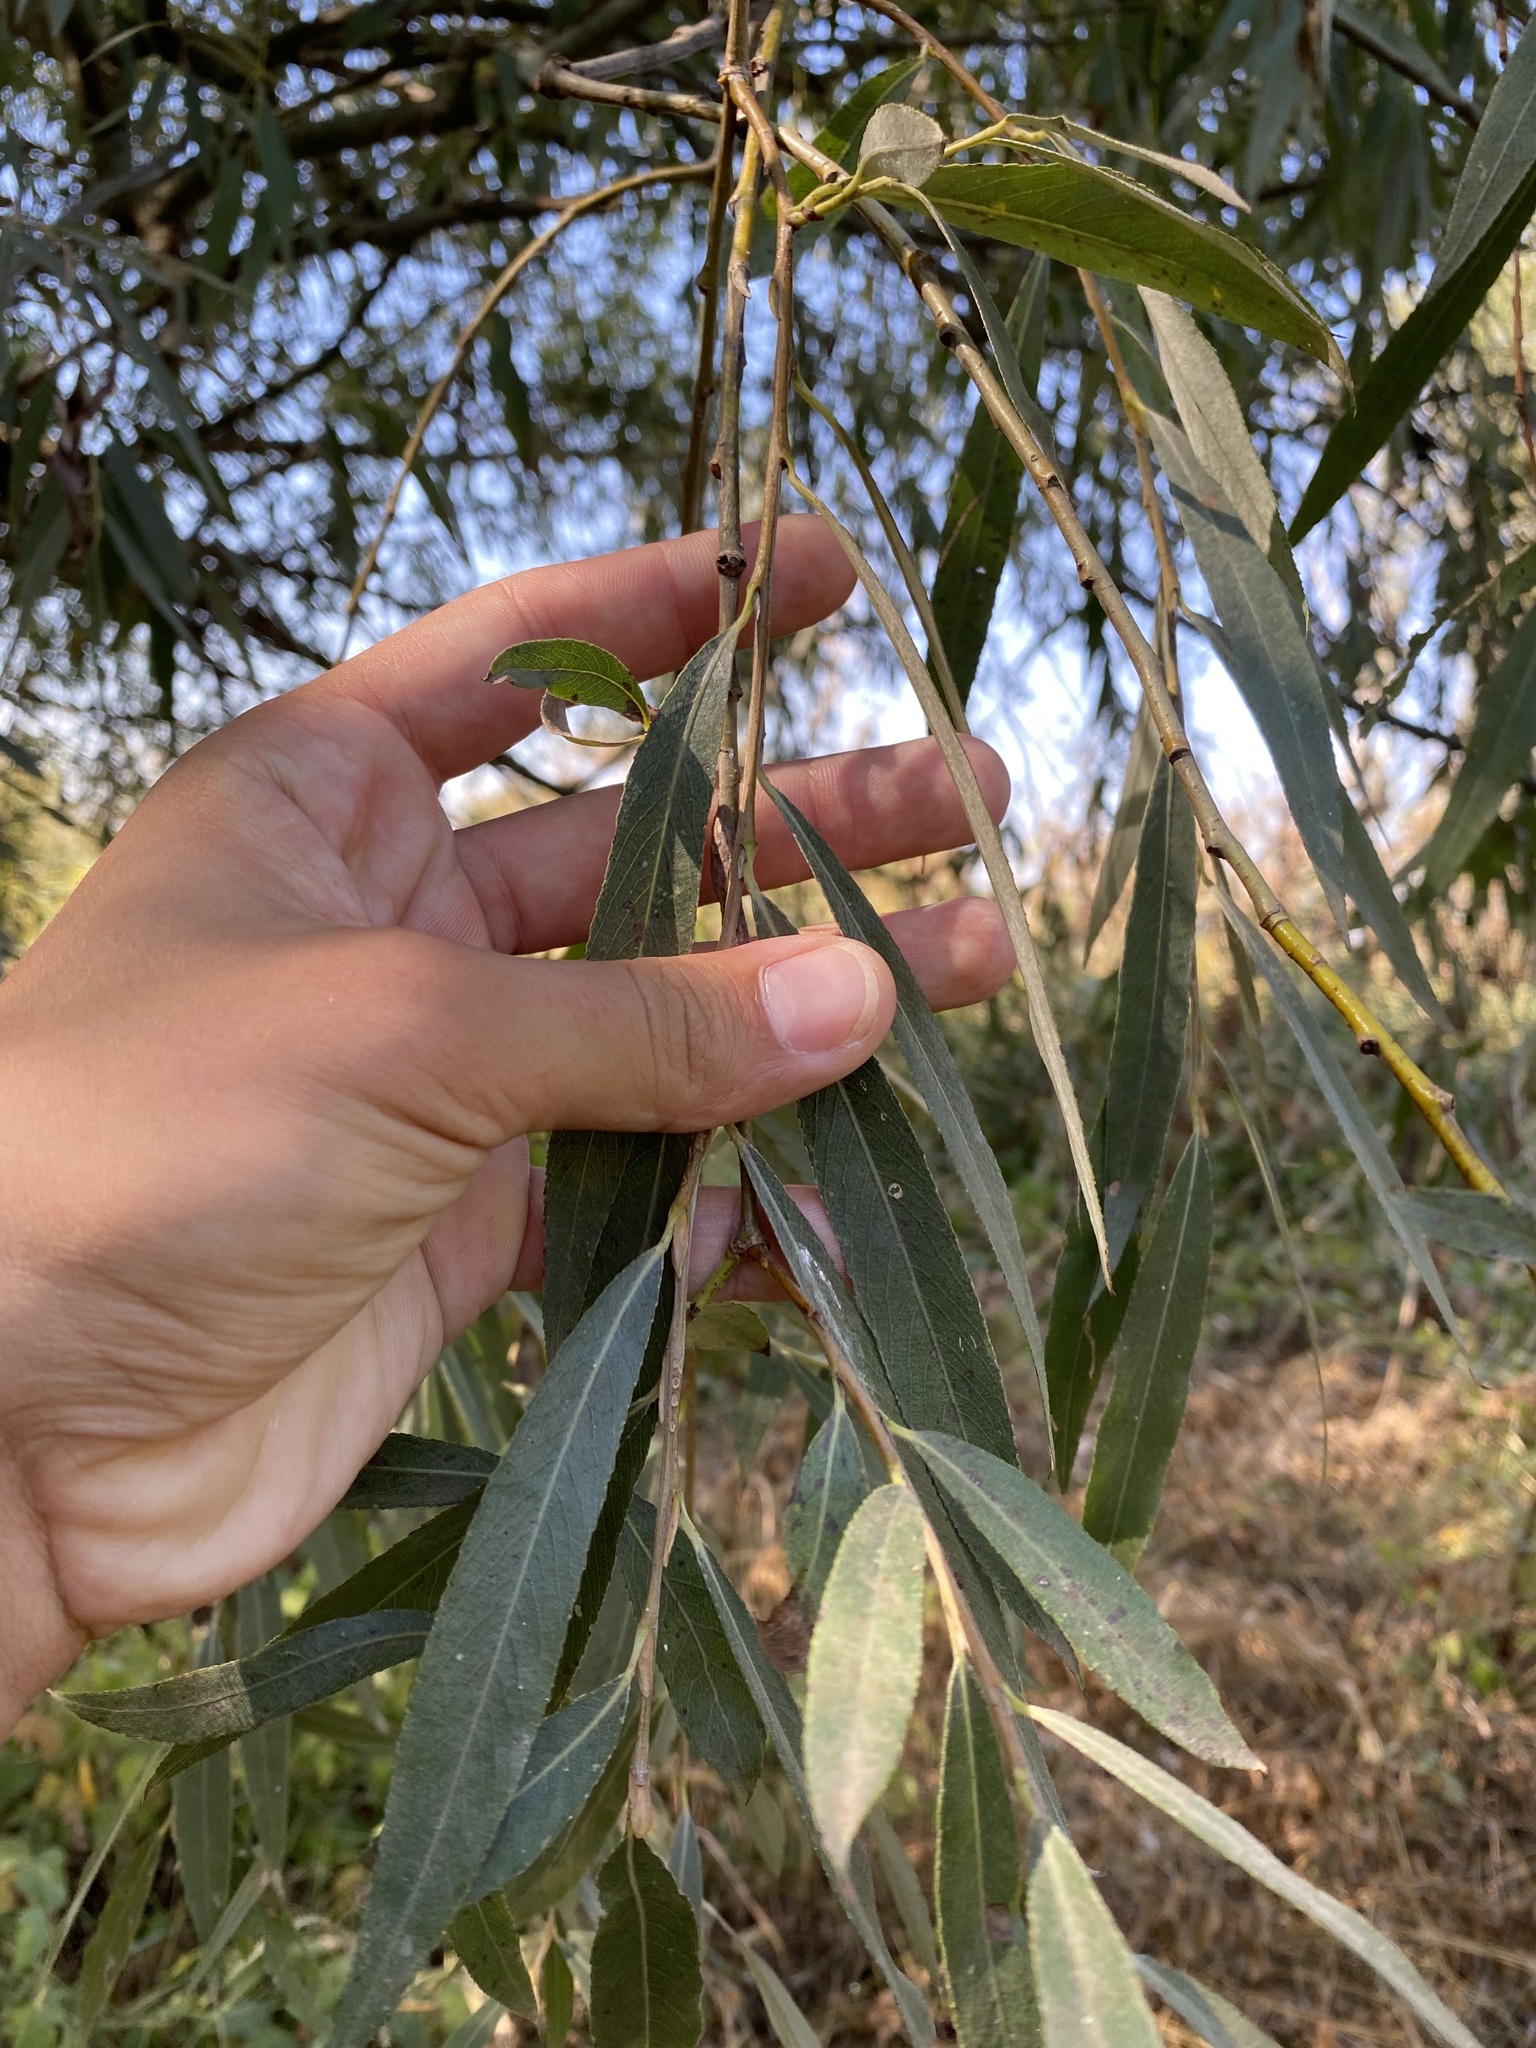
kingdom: Plantae
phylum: Tracheophyta
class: Magnoliopsida
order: Malpighiales
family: Salicaceae
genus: Salix
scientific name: Salix alba
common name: White willow
